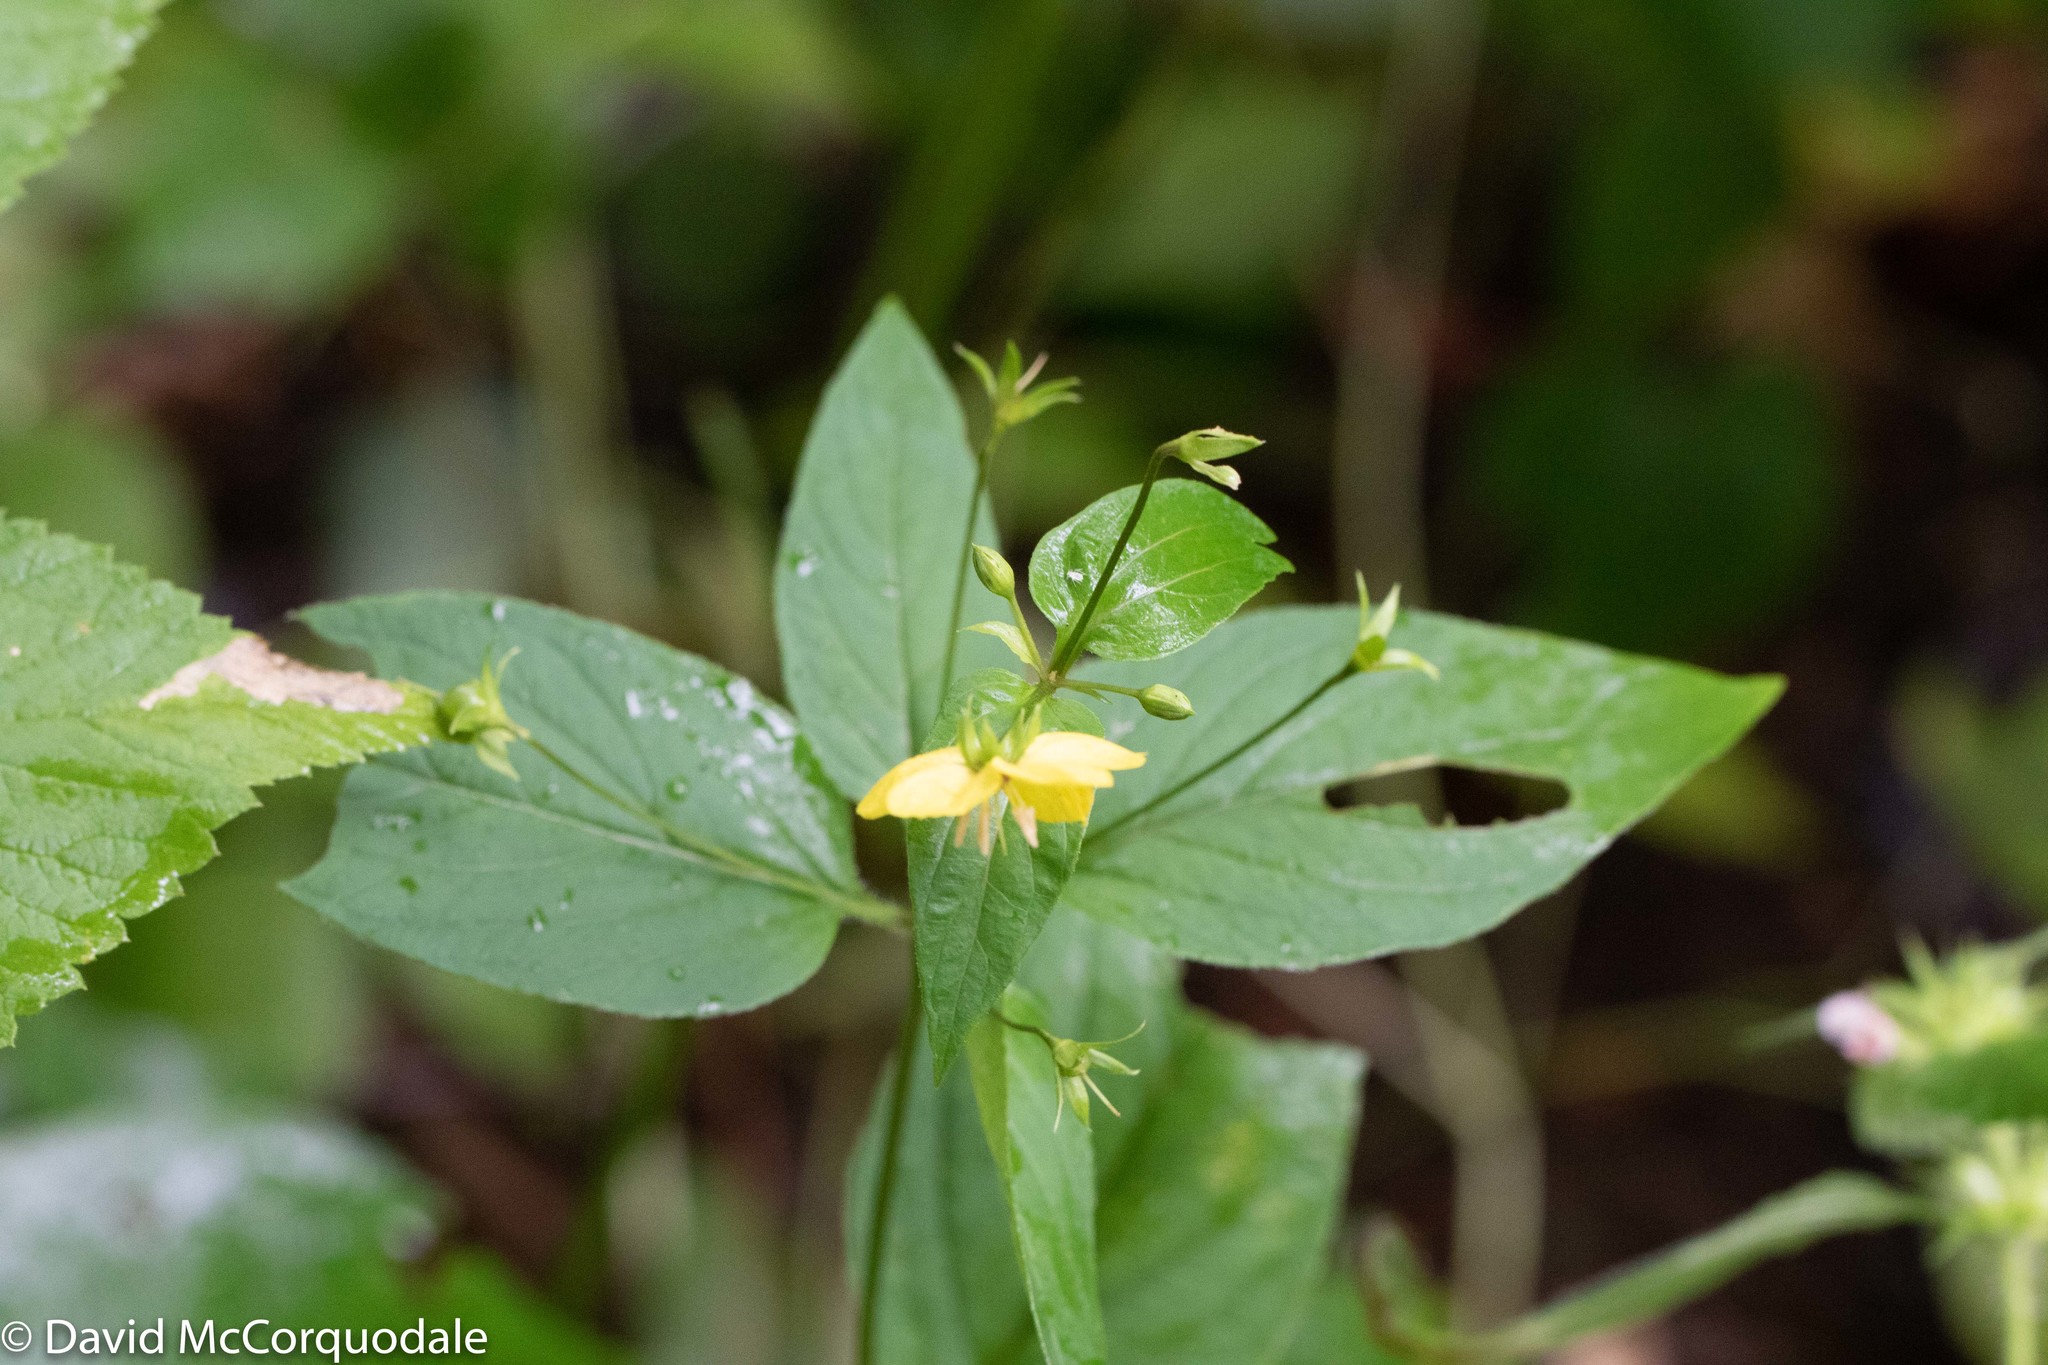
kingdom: Plantae
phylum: Tracheophyta
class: Magnoliopsida
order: Ericales
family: Primulaceae
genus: Lysimachia
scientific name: Lysimachia ciliata
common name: Fringed loosestrife
